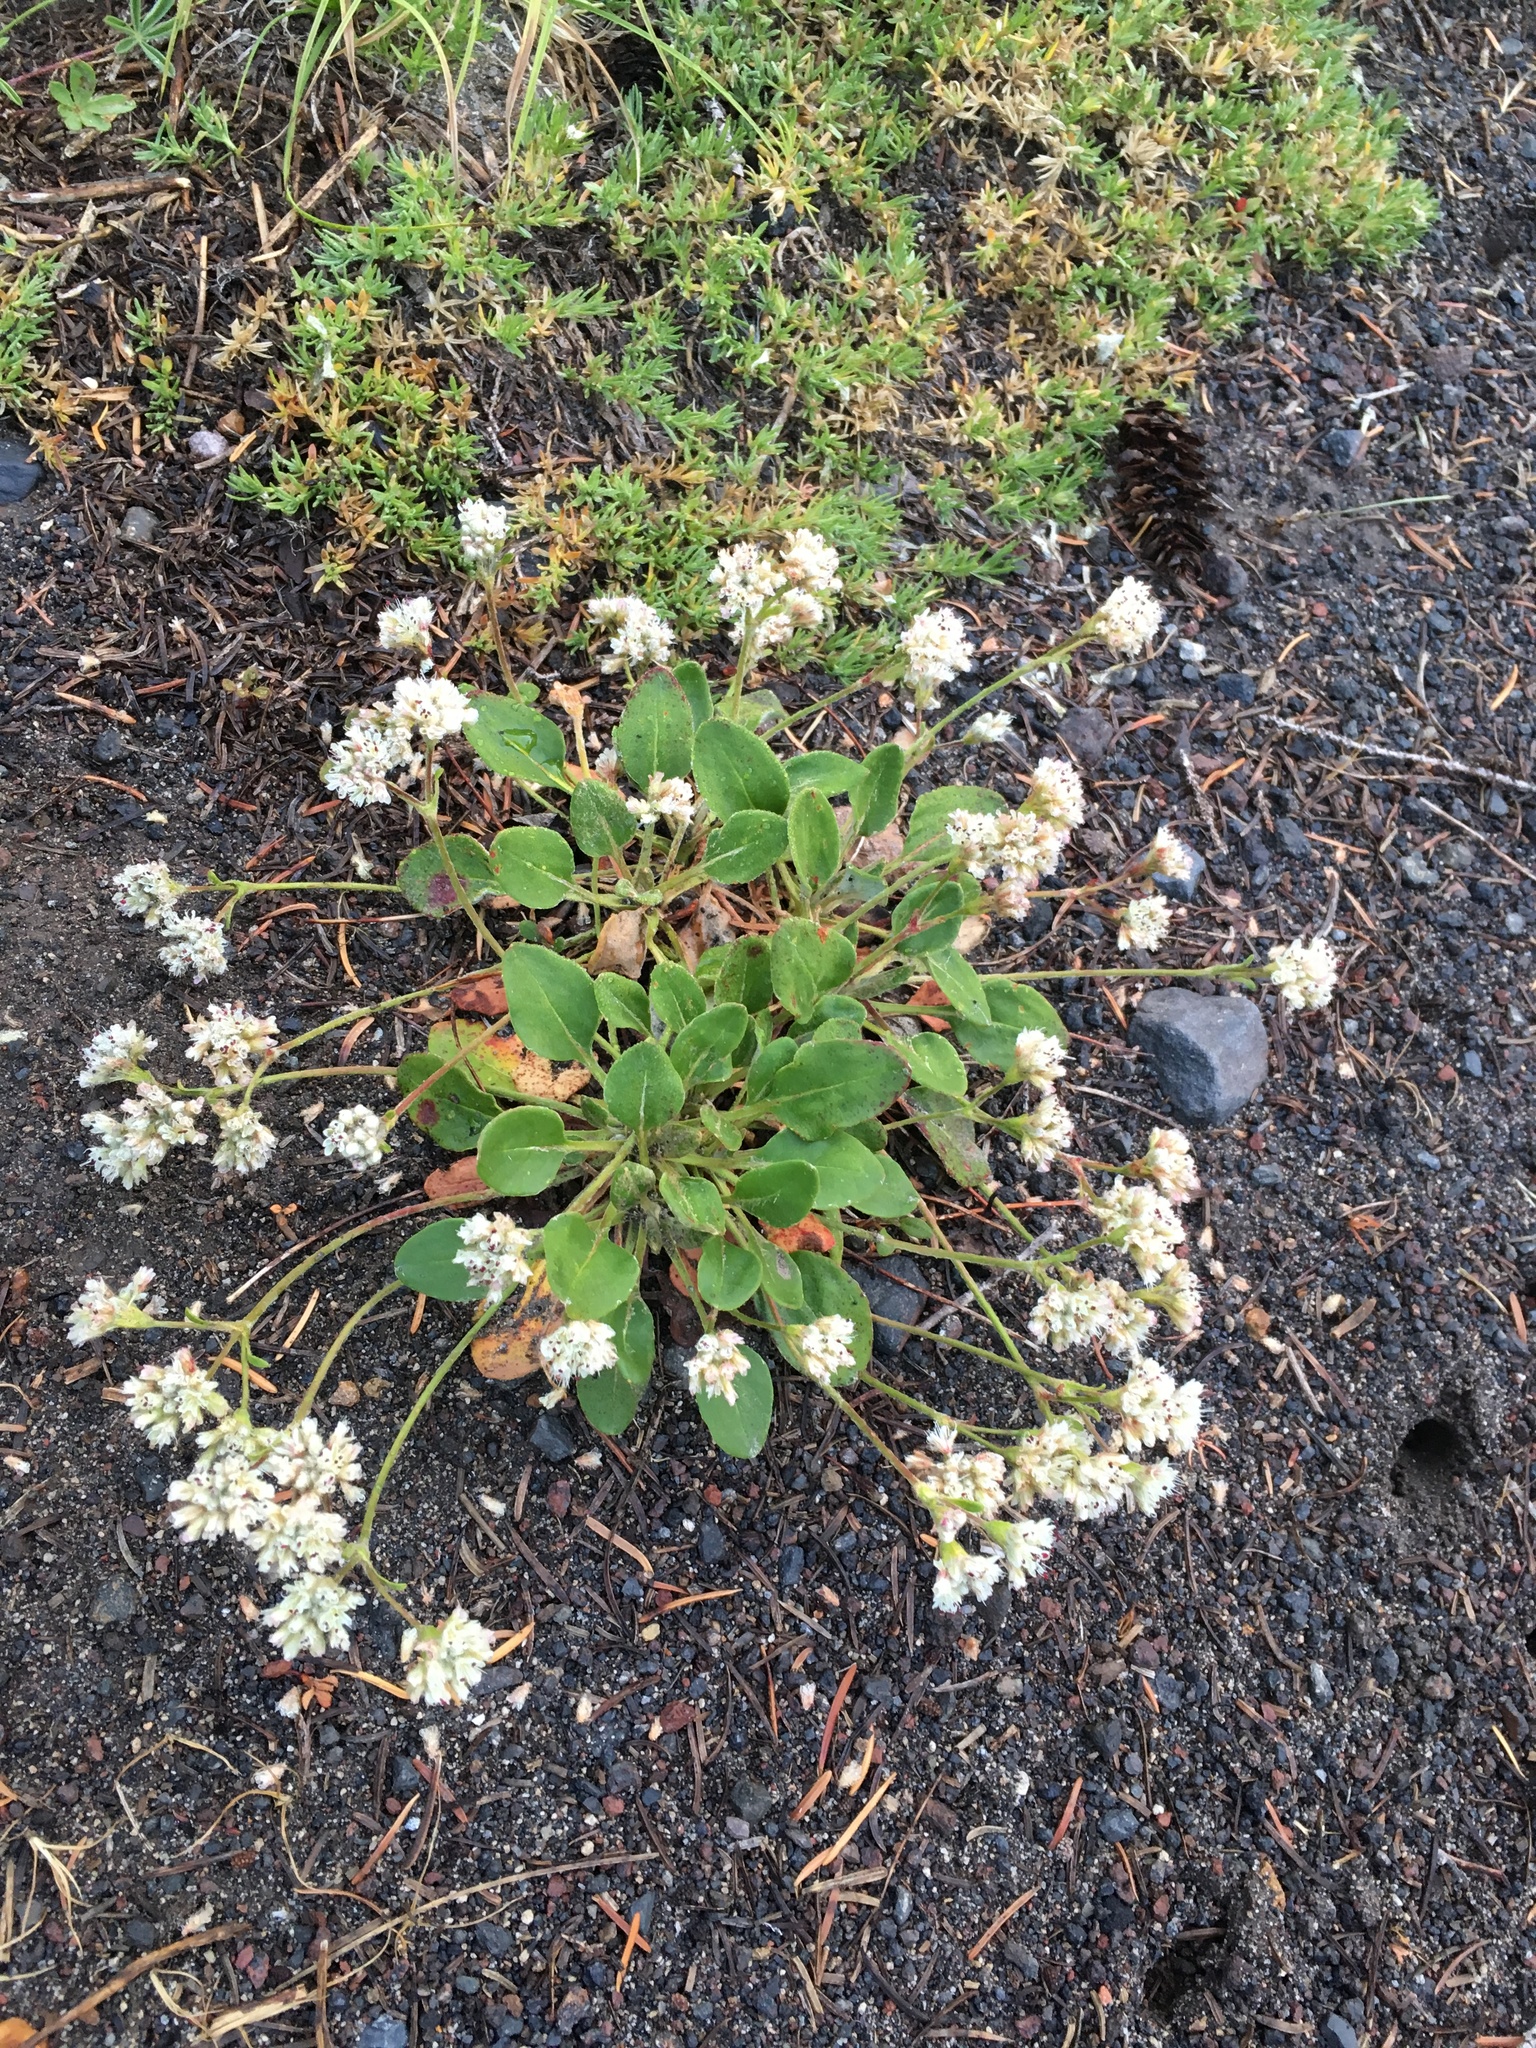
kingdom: Plantae
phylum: Tracheophyta
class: Magnoliopsida
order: Caryophyllales
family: Polygonaceae
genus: Eriogonum
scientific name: Eriogonum pyrolifolium
